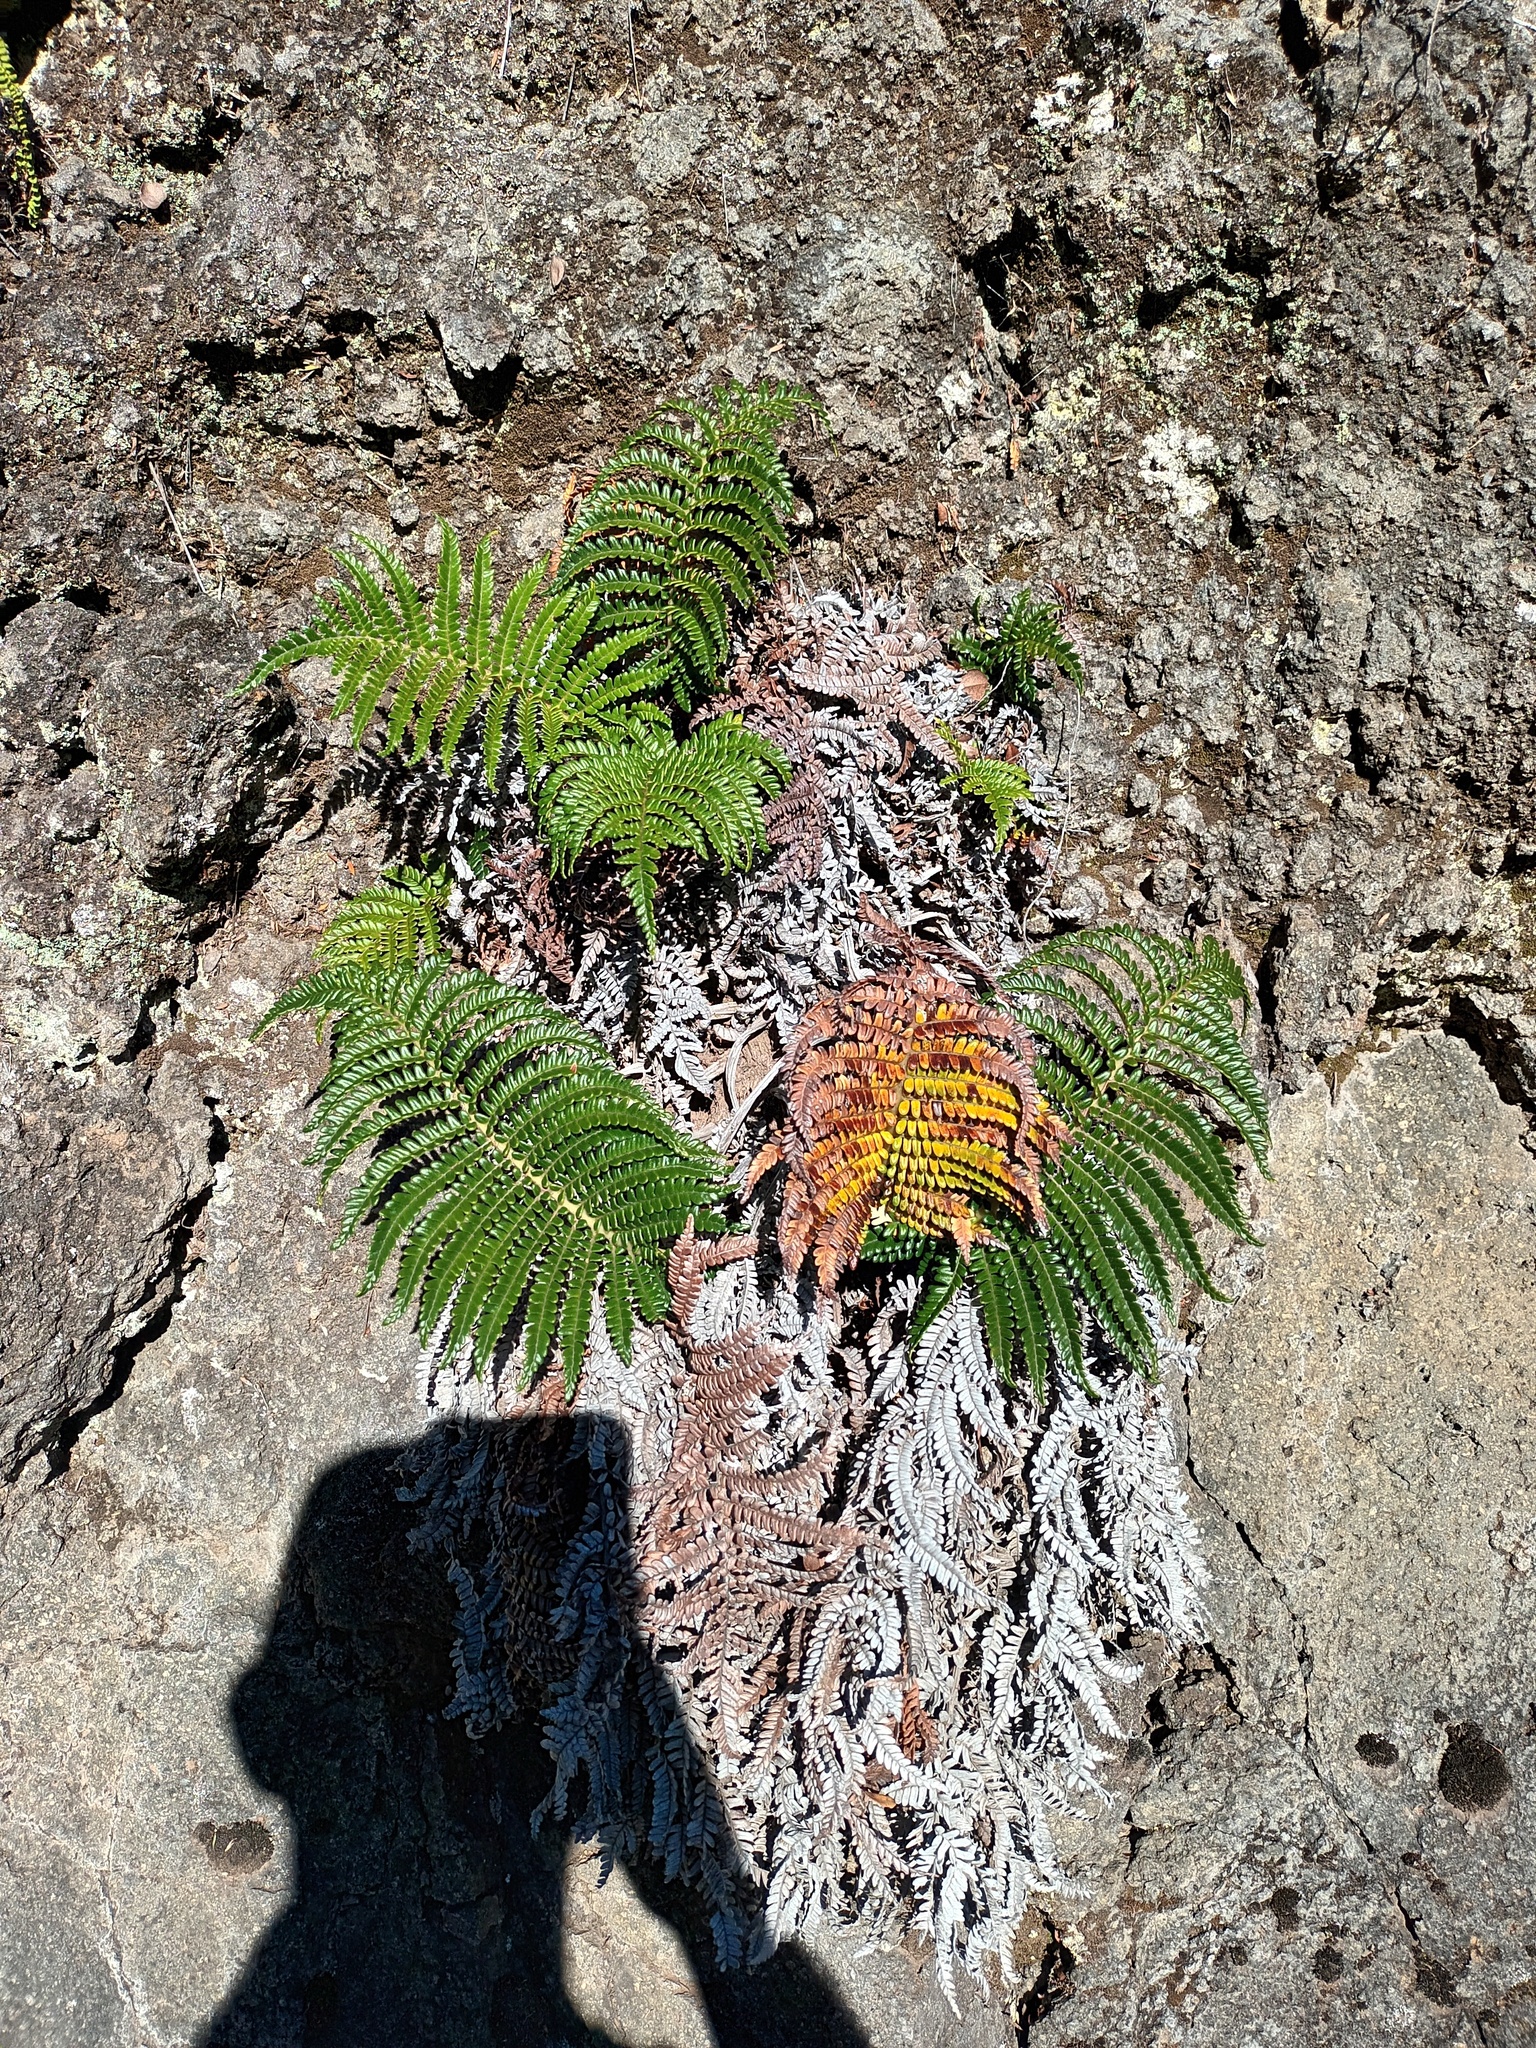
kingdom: Plantae
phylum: Tracheophyta
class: Polypodiopsida
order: Polypodiales
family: Blechnaceae
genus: Sadleria
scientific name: Sadleria cyatheoides
